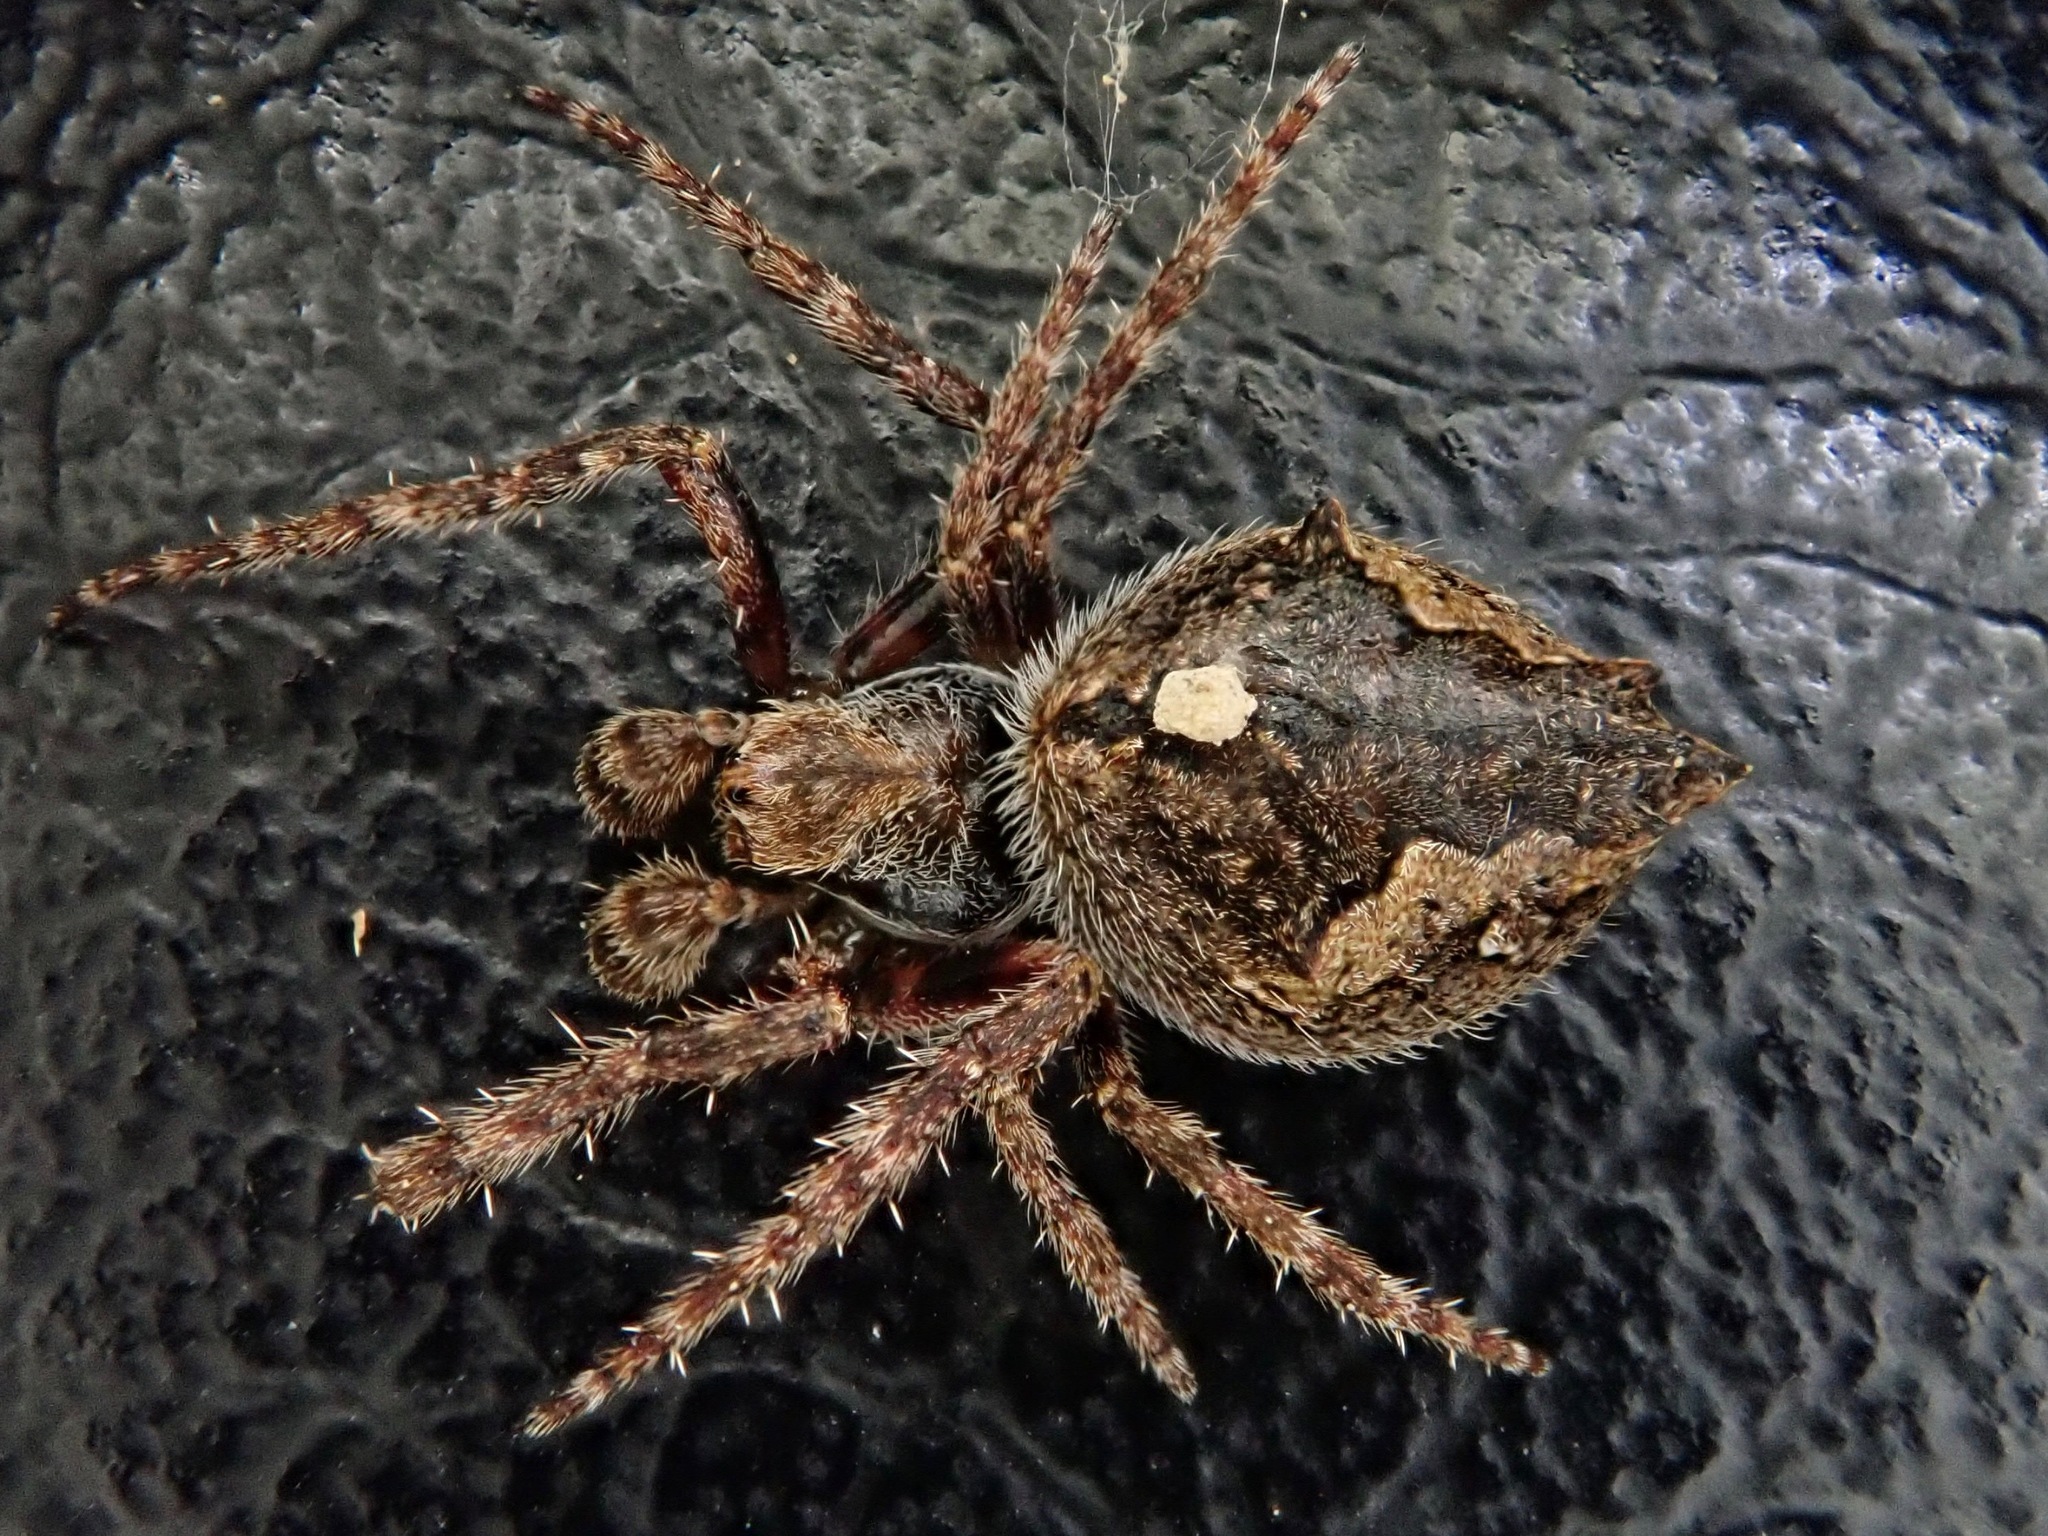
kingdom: Animalia
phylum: Arthropoda
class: Arachnida
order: Araneae
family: Araneidae
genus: Eriophora
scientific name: Eriophora pustulosa
